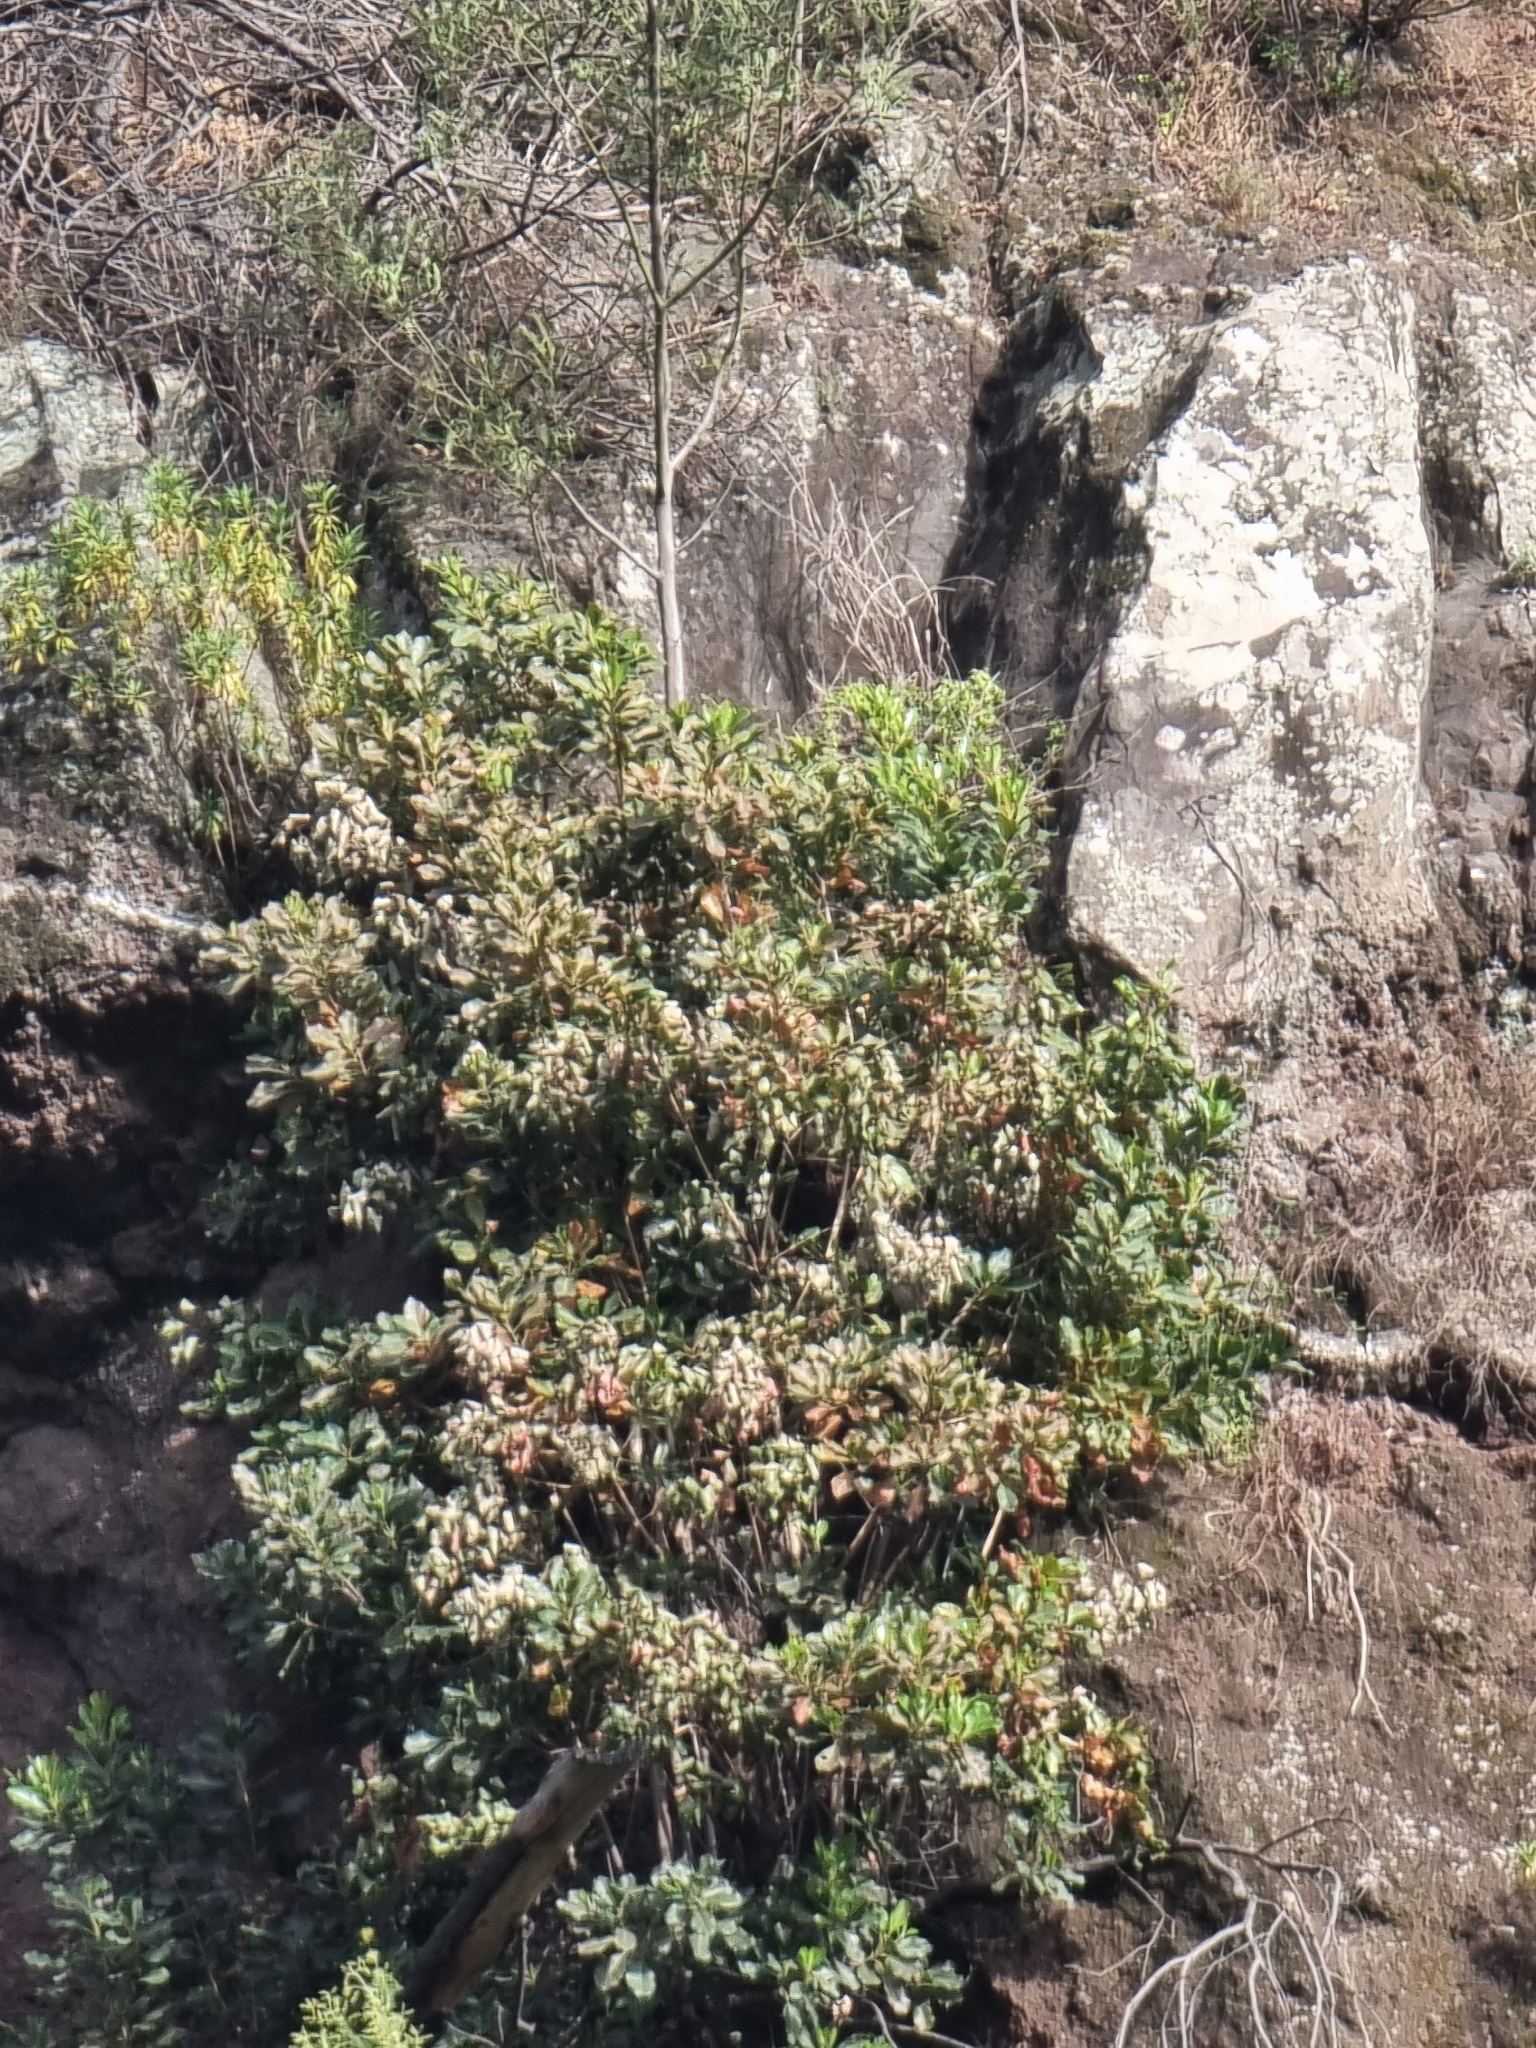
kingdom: Plantae
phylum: Tracheophyta
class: Magnoliopsida
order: Ericales
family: Sapotaceae
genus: Sideroxylon
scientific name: Sideroxylon mirmulans
